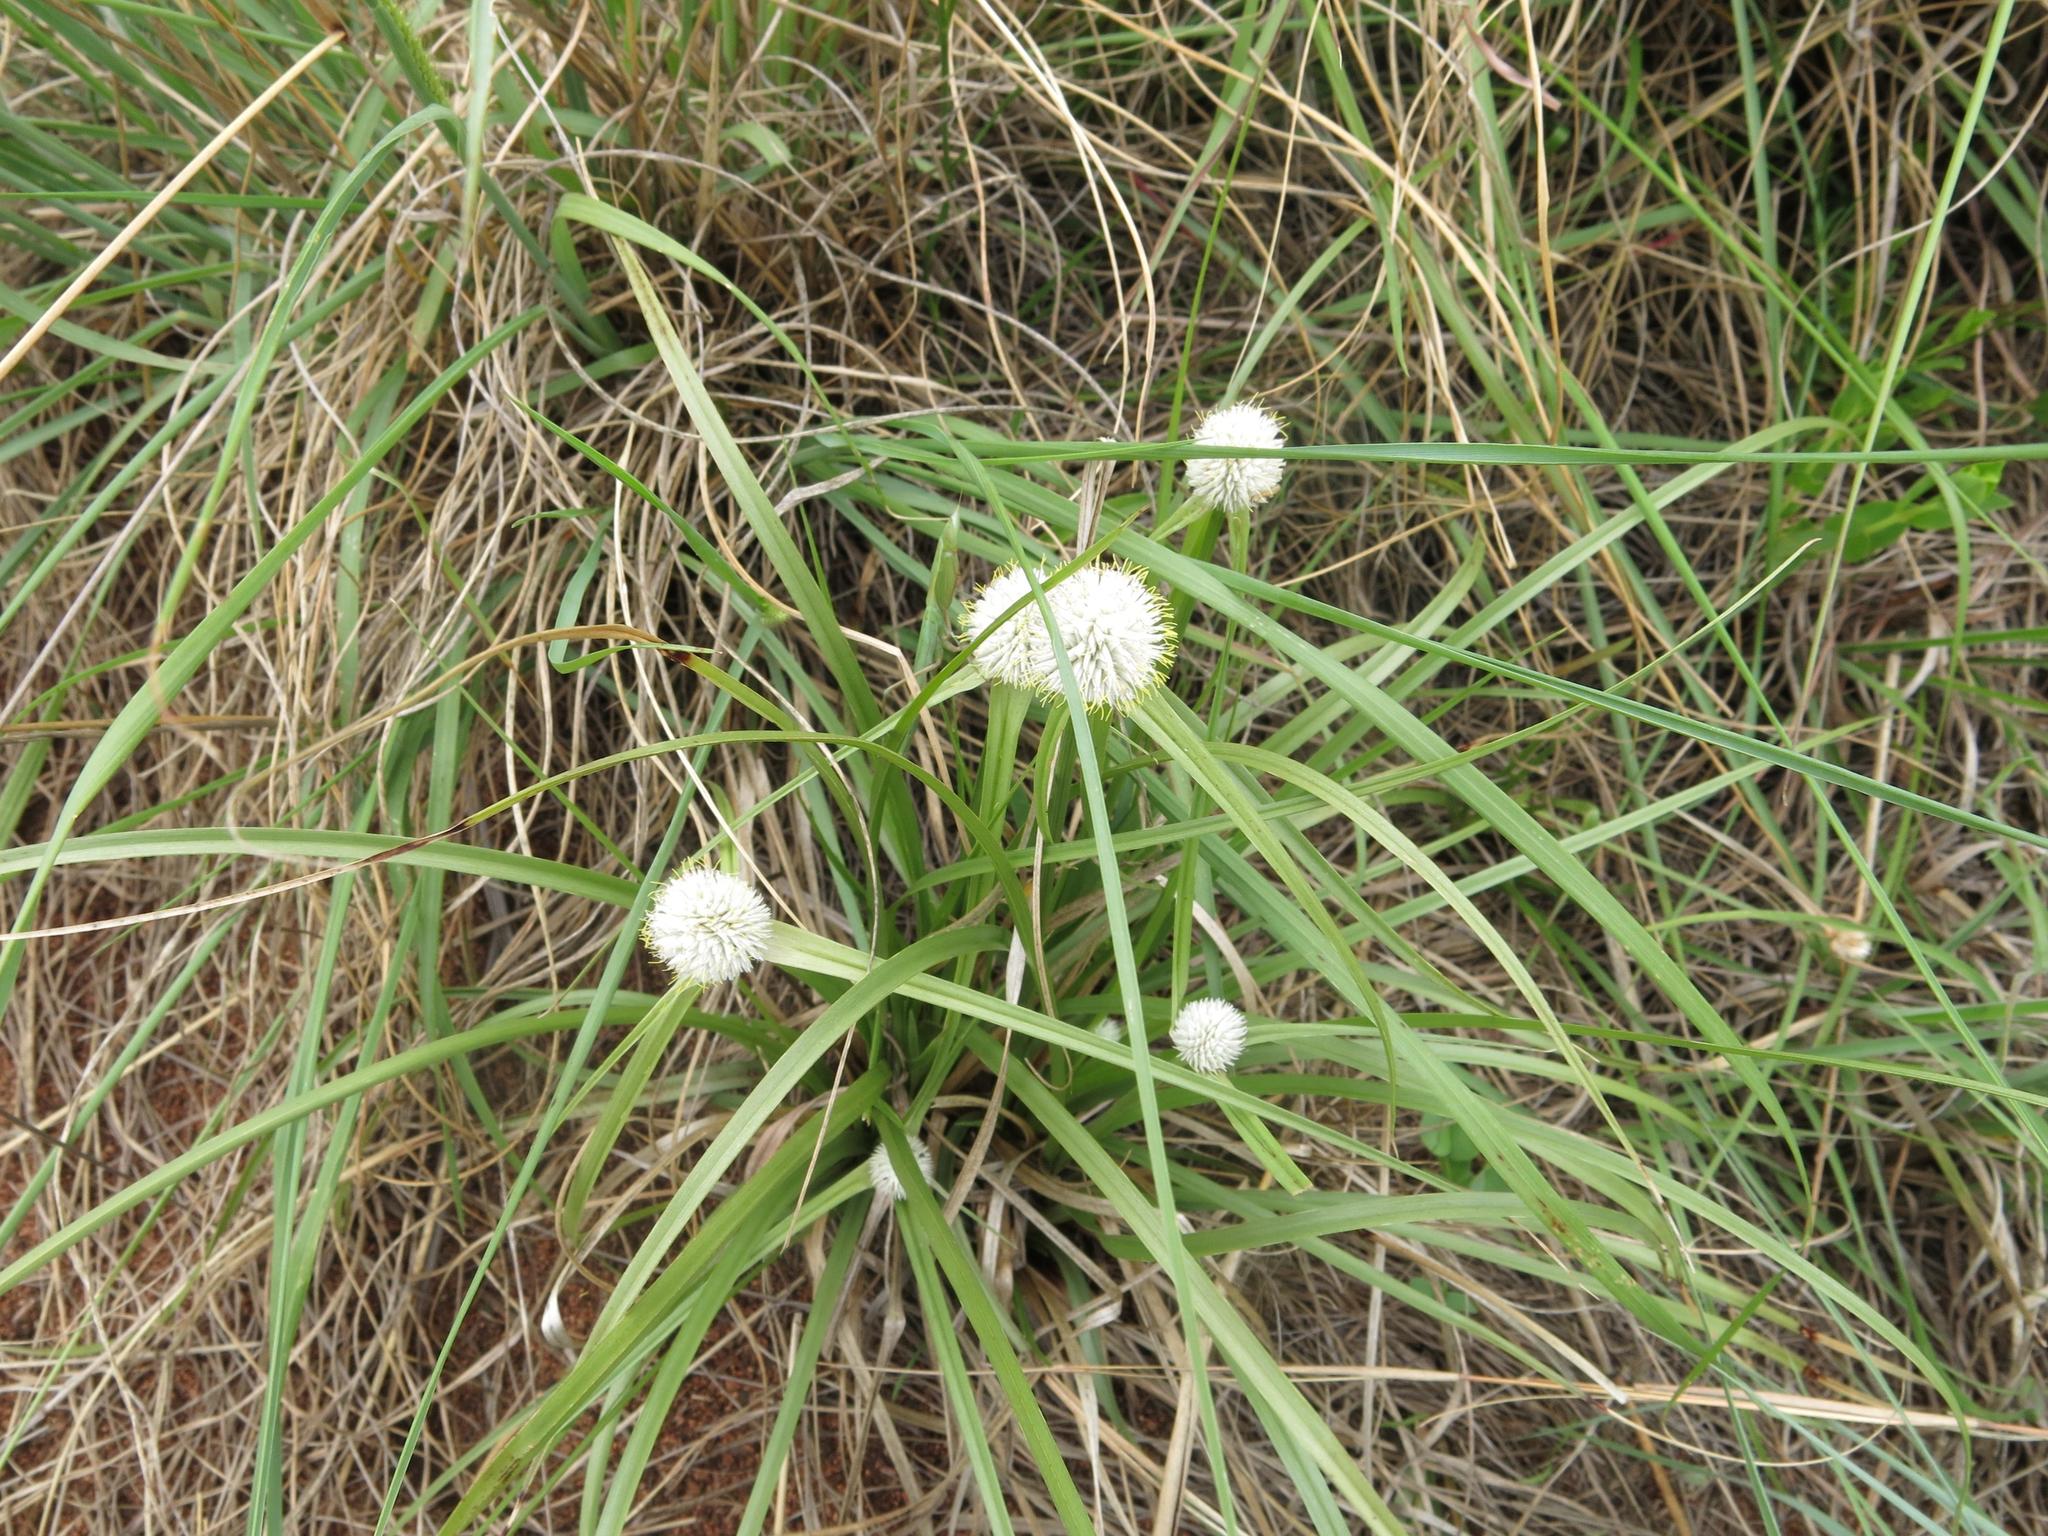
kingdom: Plantae
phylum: Tracheophyta
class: Liliopsida
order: Poales
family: Cyperaceae
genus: Cyperus
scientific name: Cyperus alatus
